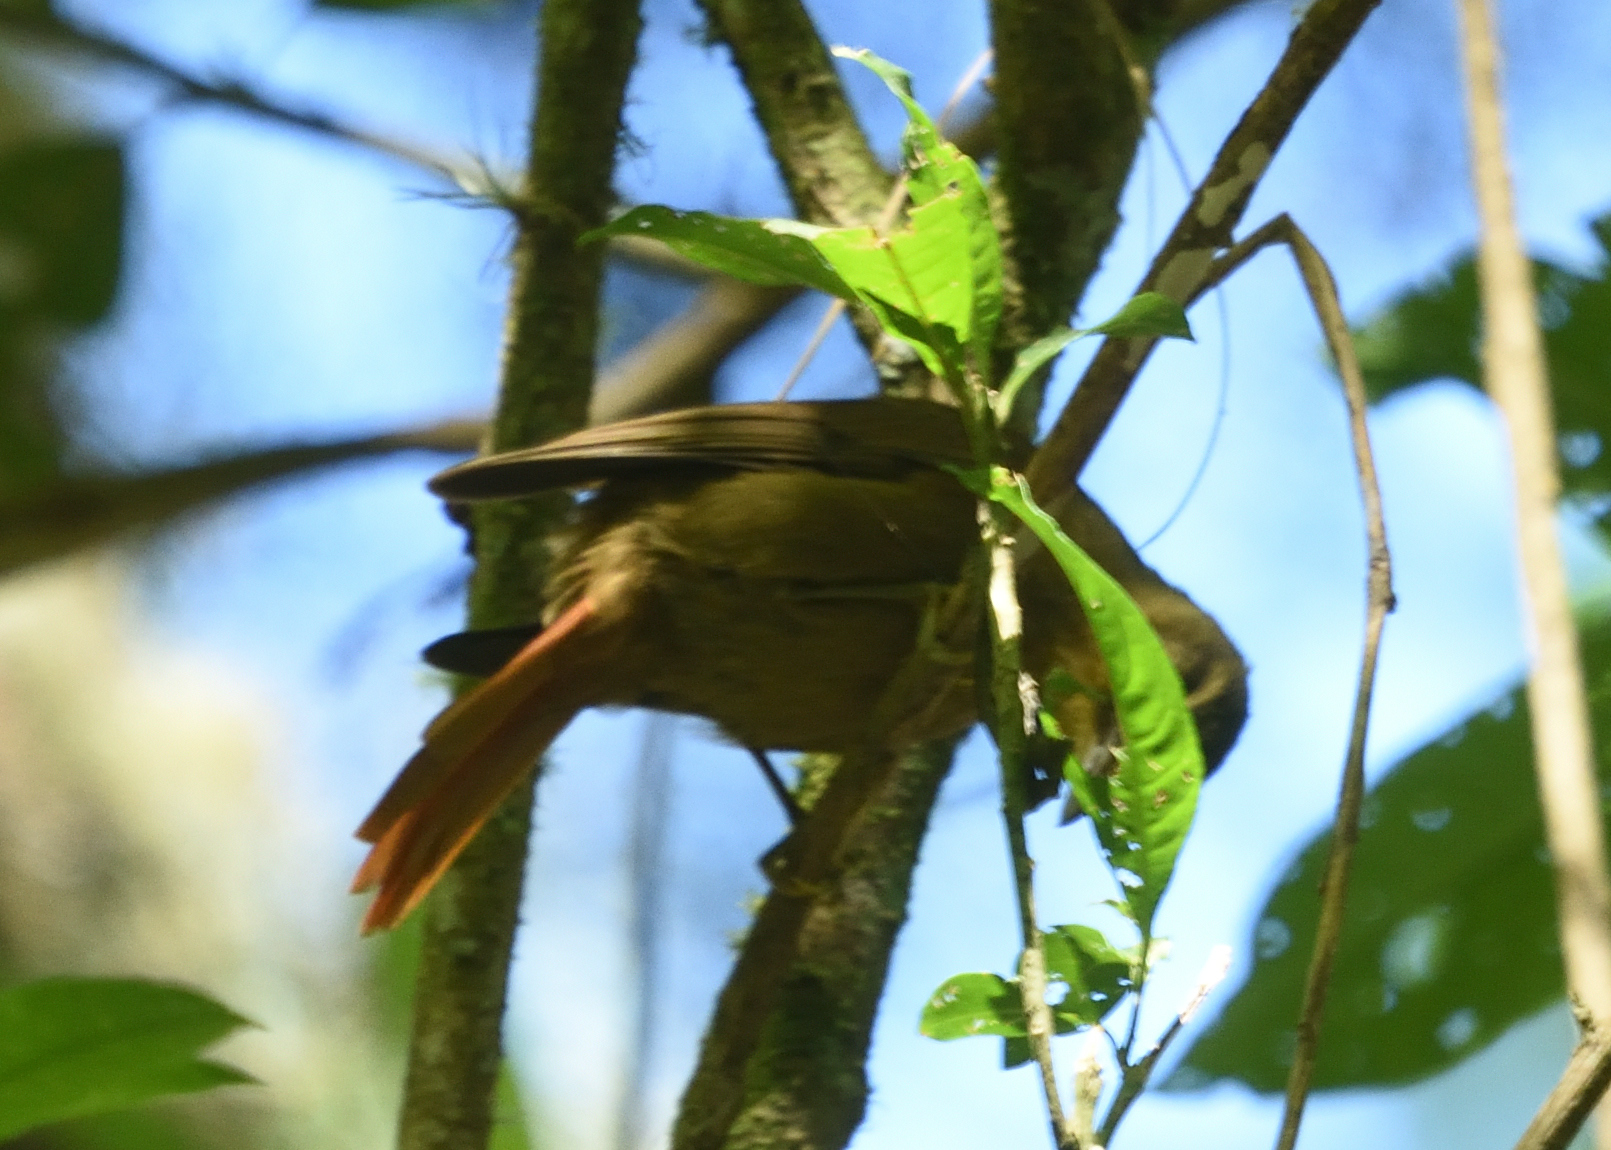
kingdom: Animalia
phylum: Chordata
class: Aves
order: Passeriformes
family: Furnariidae
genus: Anabacerthia
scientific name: Anabacerthia striaticollis
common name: Montane foliage-gleaner
